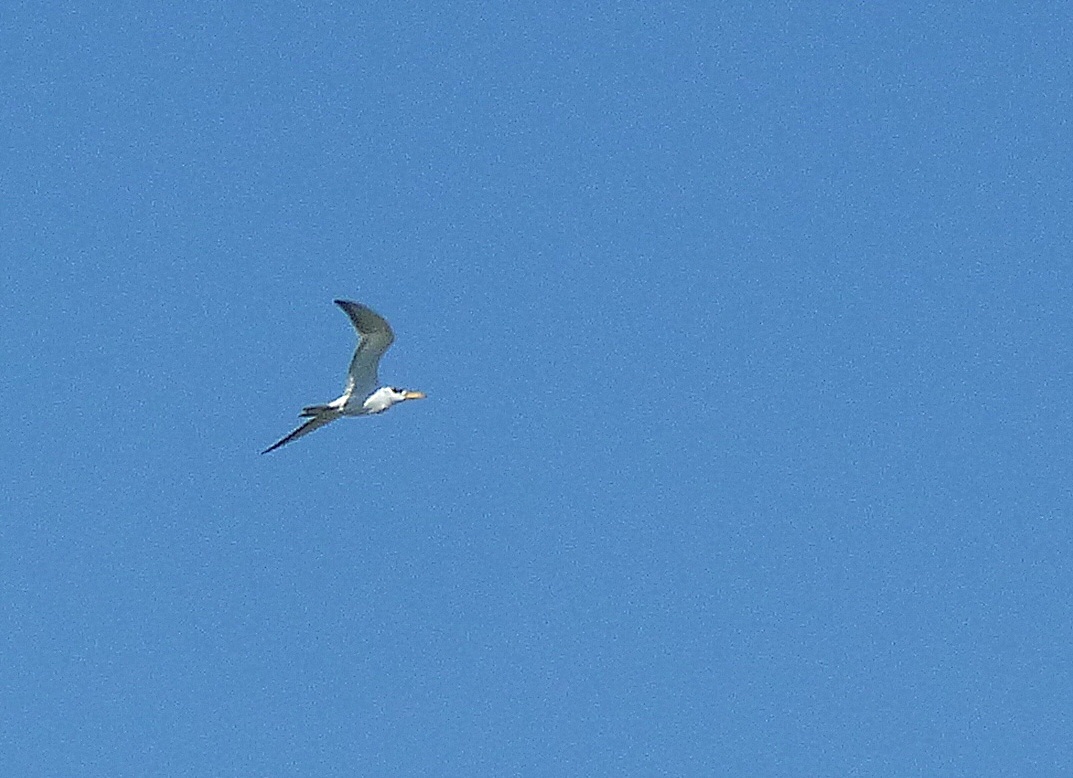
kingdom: Animalia
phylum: Chordata
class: Aves
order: Charadriiformes
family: Laridae
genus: Phaetusa
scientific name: Phaetusa simplex
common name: Large-billed tern
